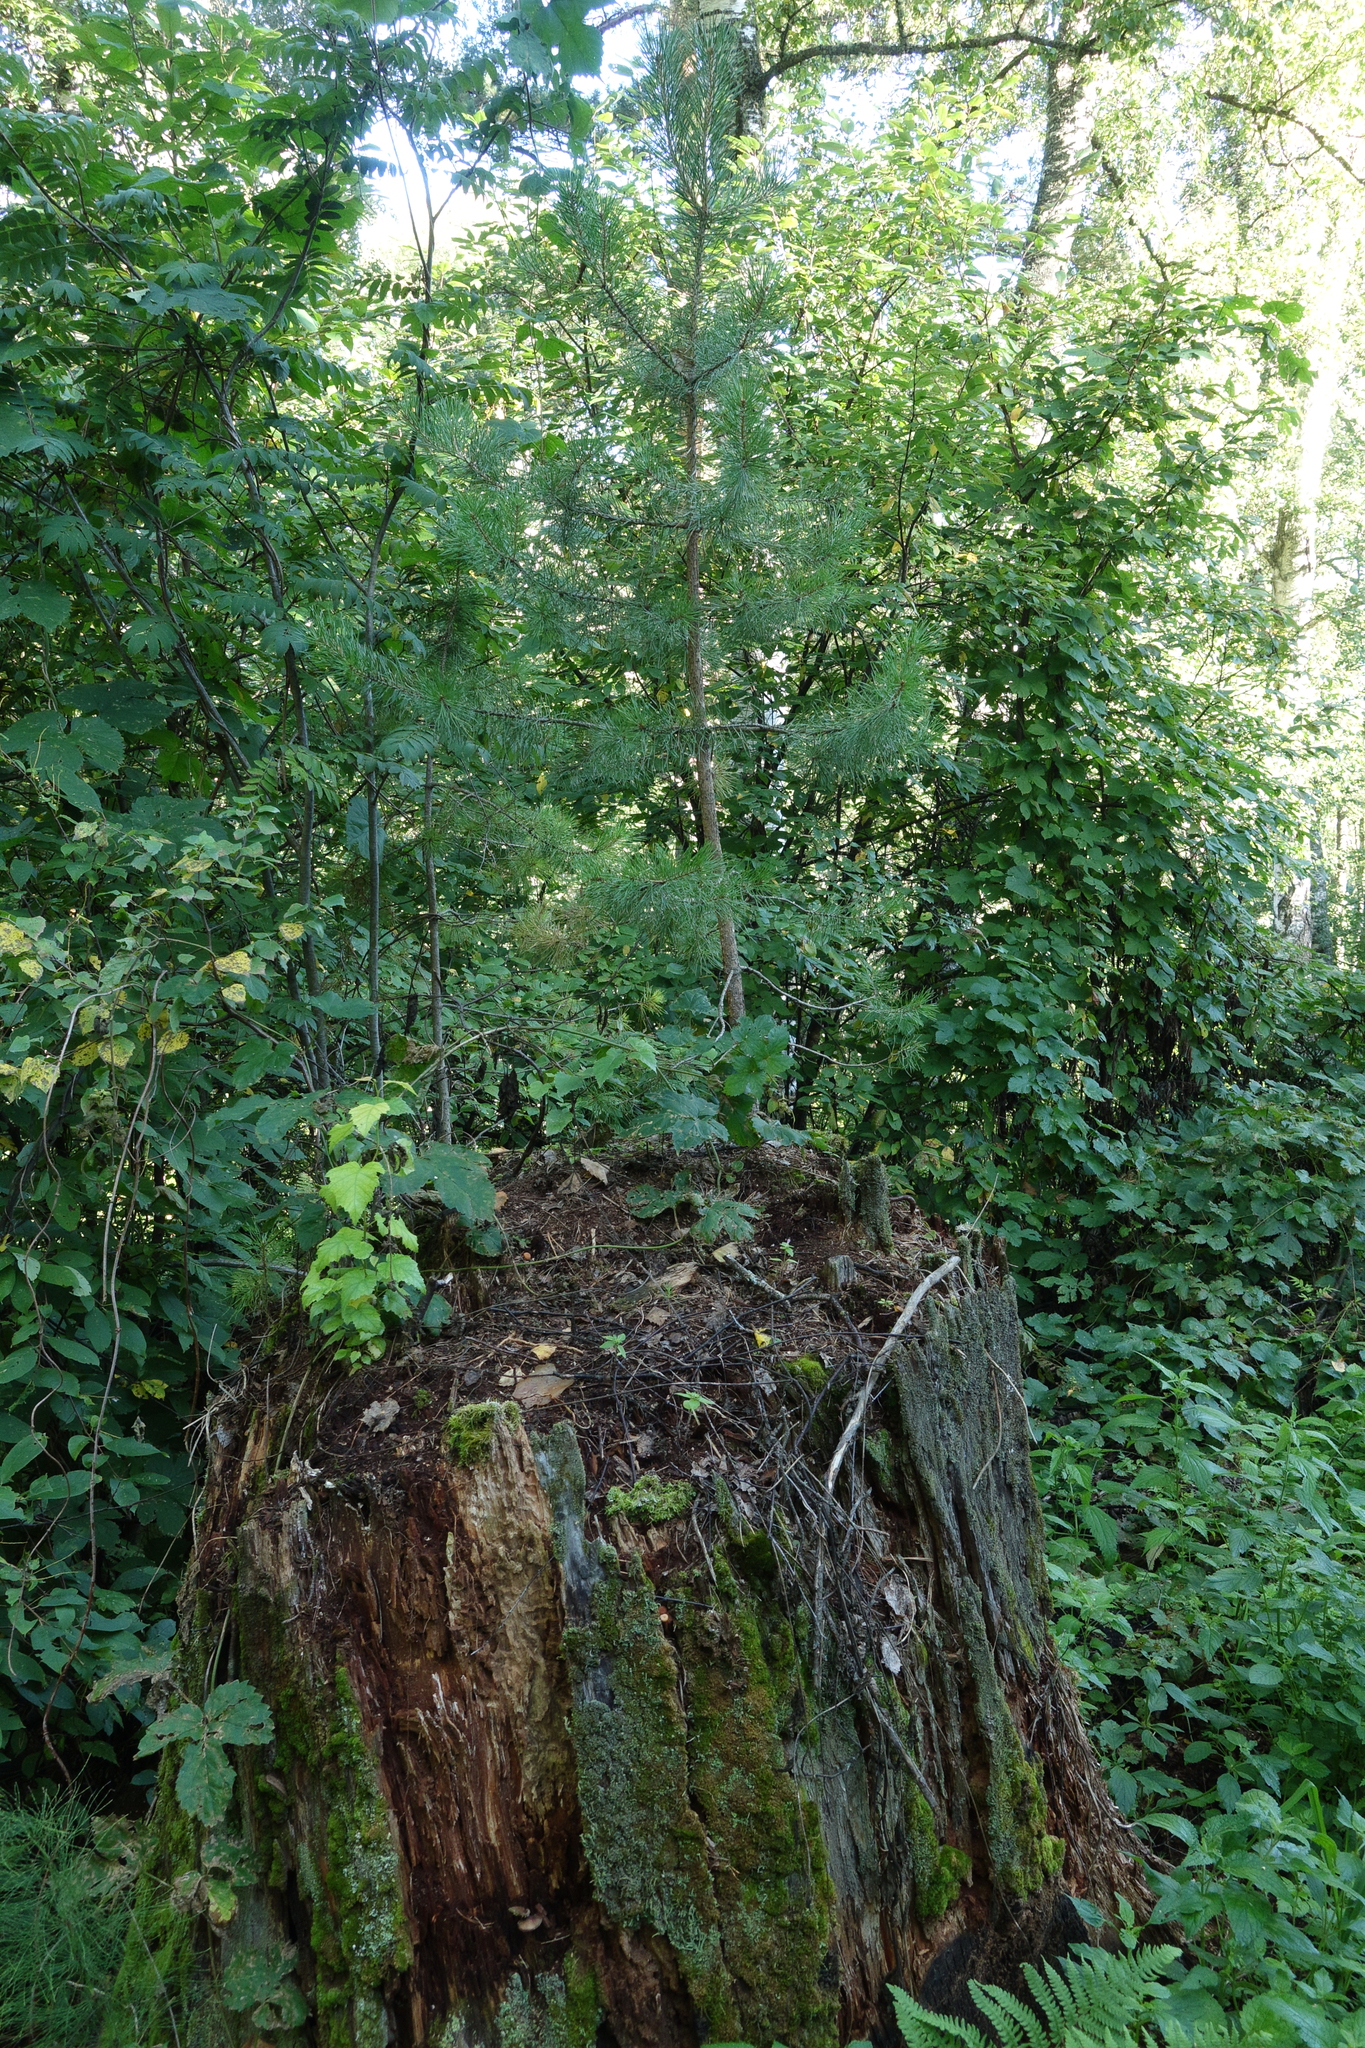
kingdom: Plantae
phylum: Tracheophyta
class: Pinopsida
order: Pinales
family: Pinaceae
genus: Pinus
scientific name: Pinus sylvestris
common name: Scots pine
